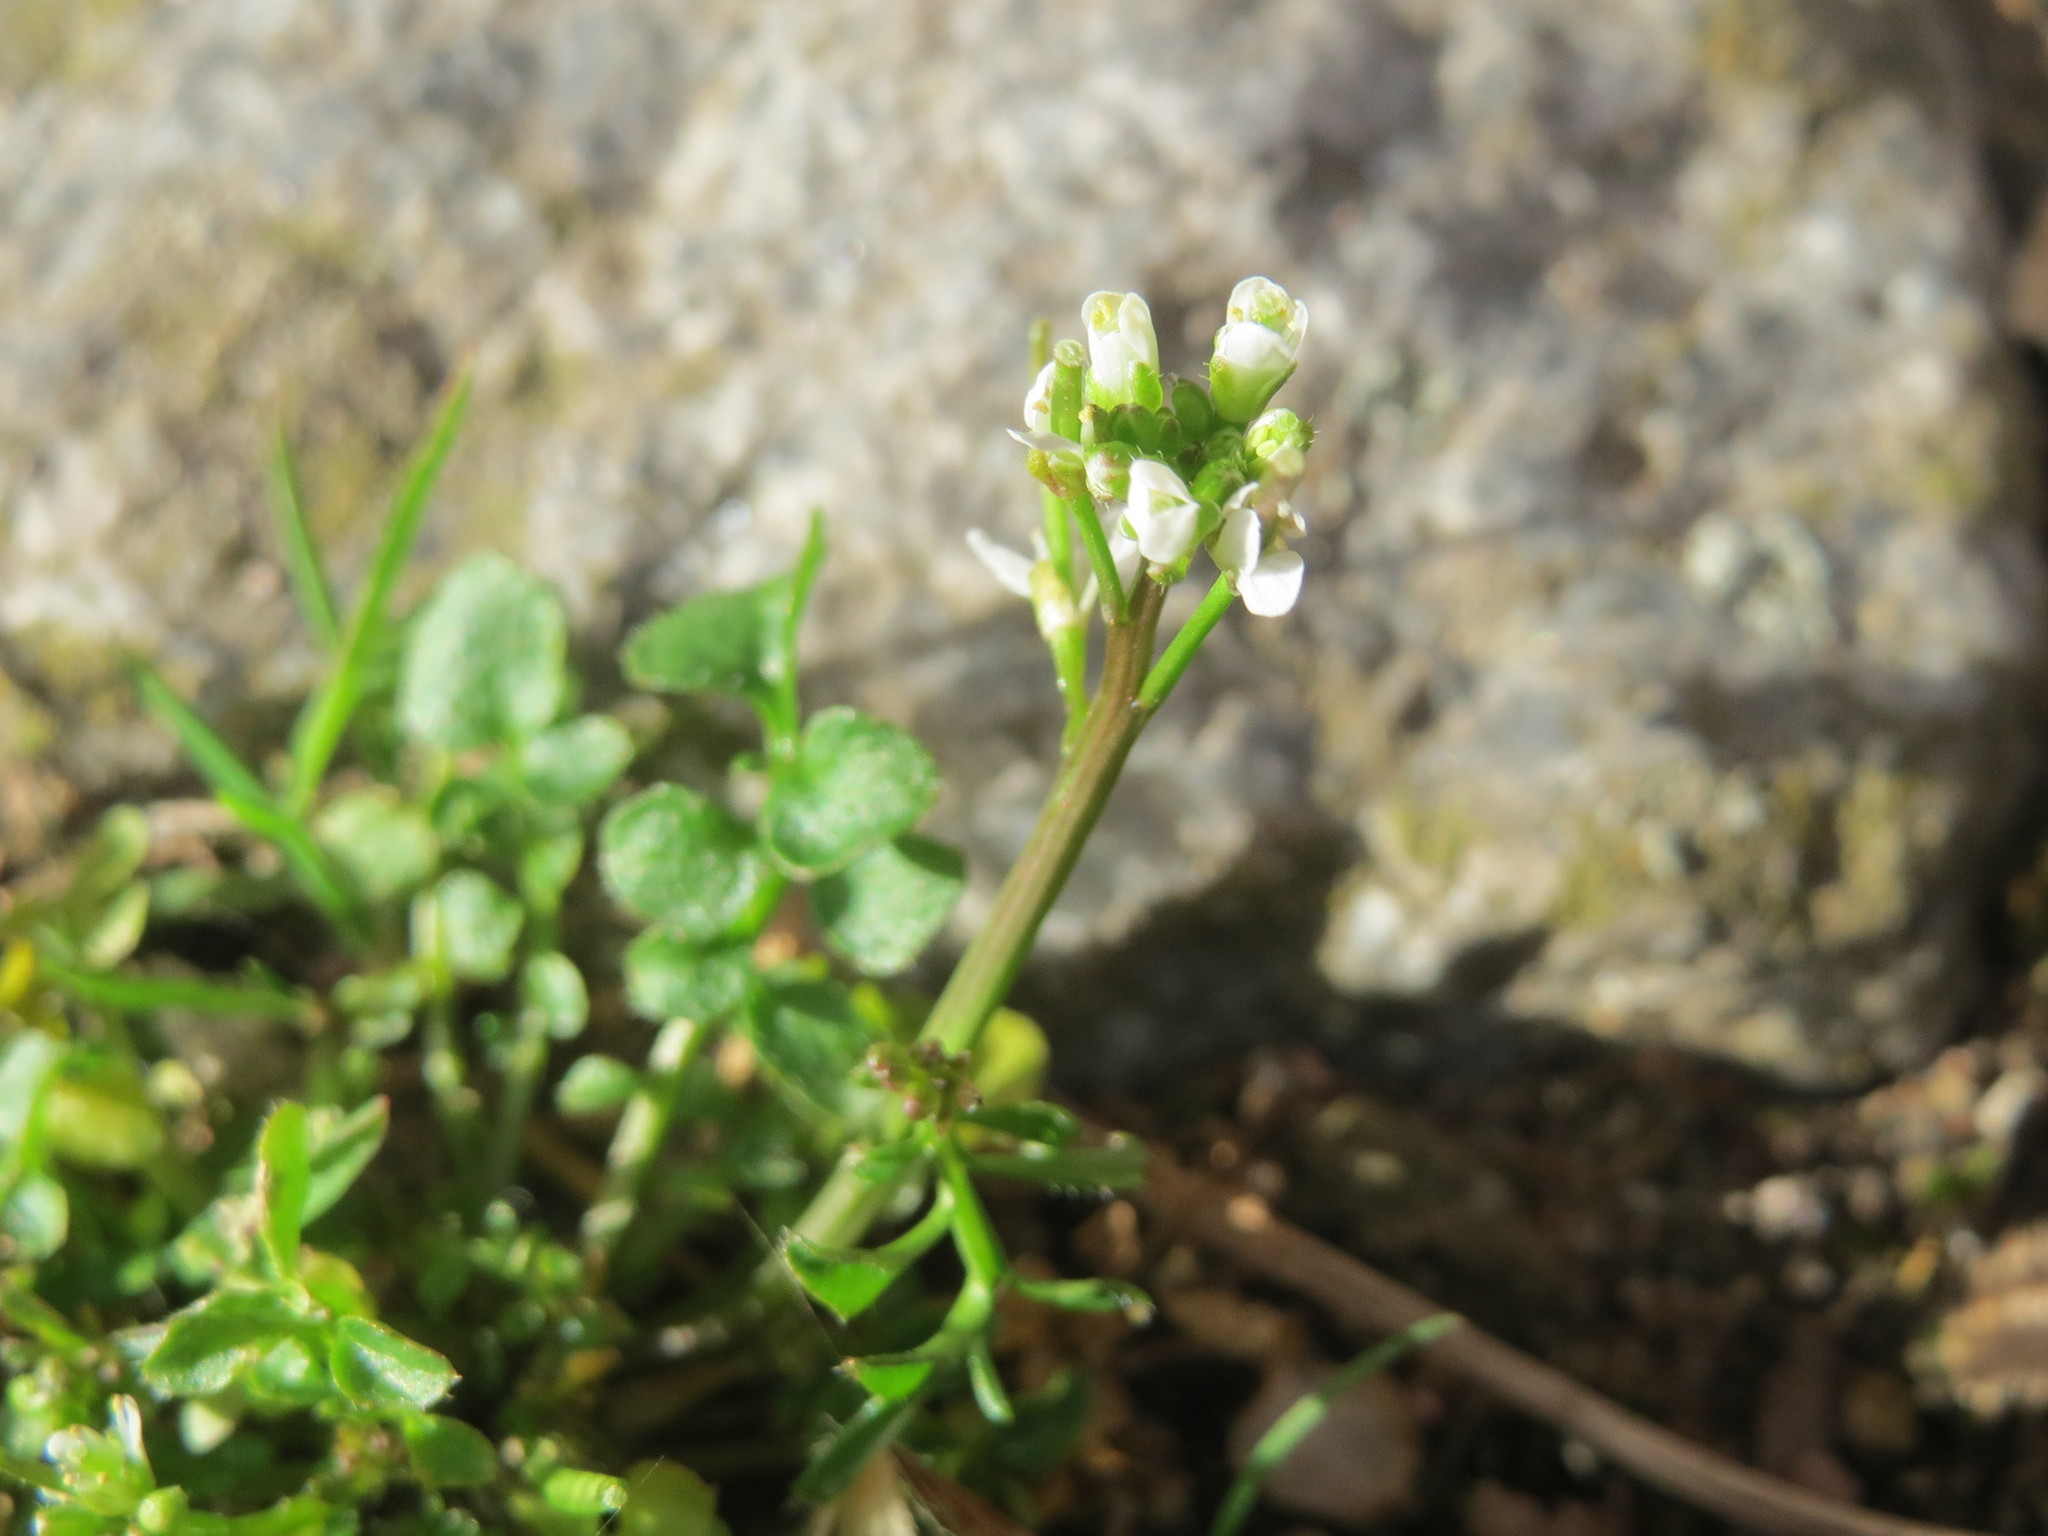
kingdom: Plantae
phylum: Tracheophyta
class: Magnoliopsida
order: Brassicales
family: Brassicaceae
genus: Cardamine
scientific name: Cardamine hirsuta
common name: Hairy bittercress
